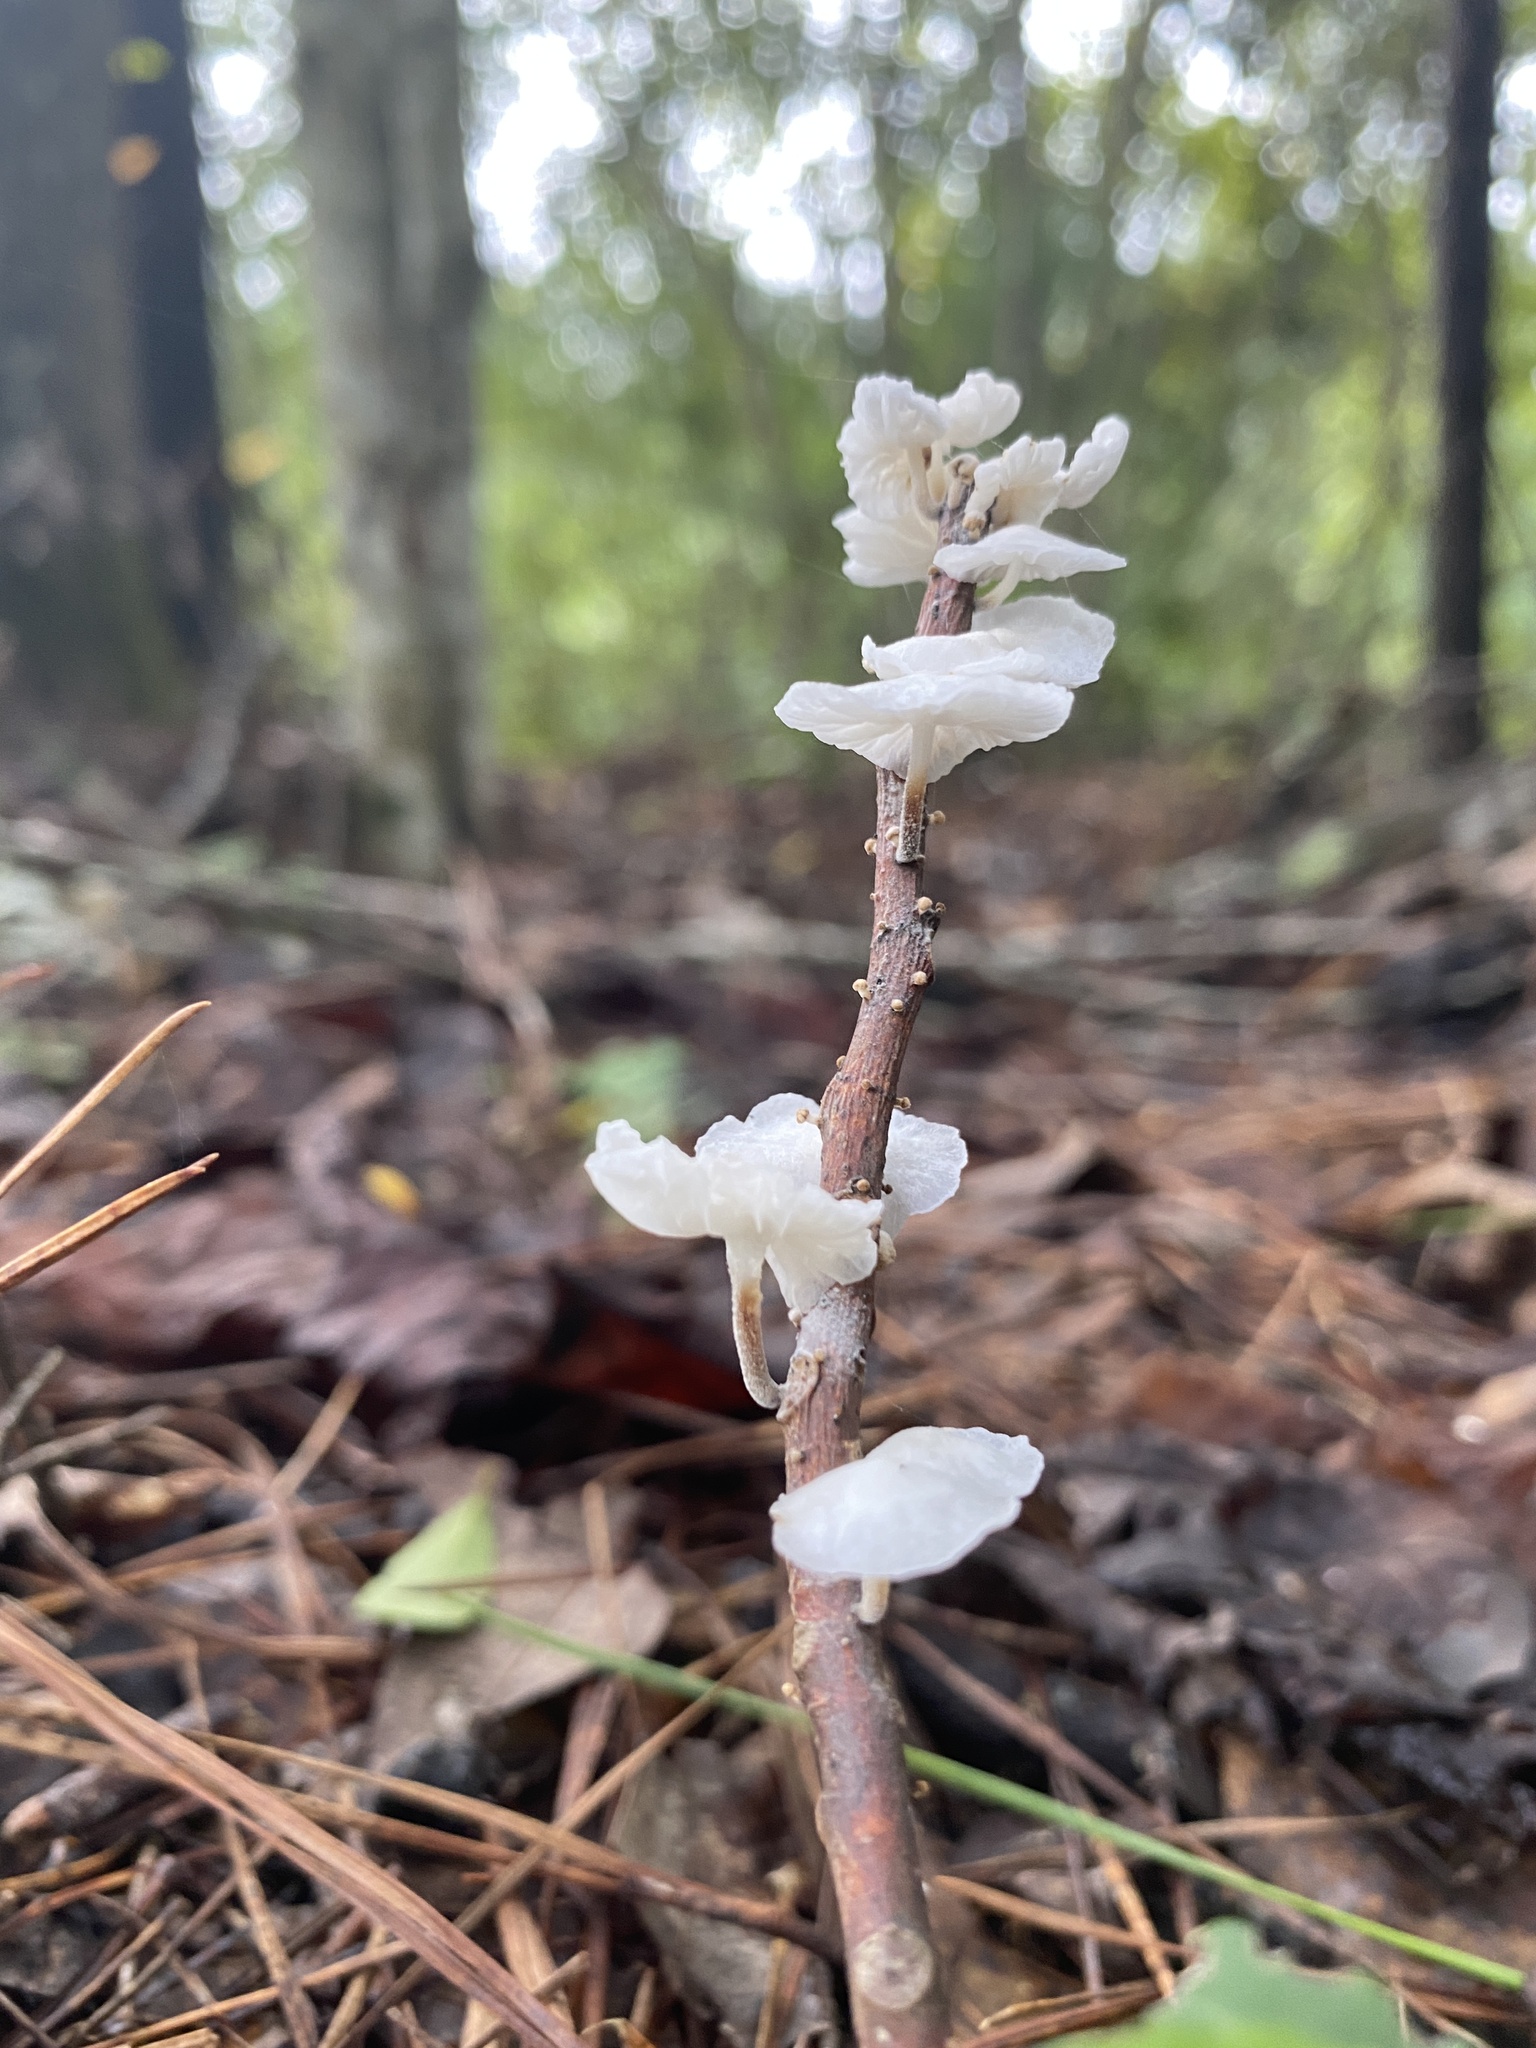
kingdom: Fungi
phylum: Basidiomycota
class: Agaricomycetes
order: Agaricales
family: Omphalotaceae
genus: Marasmiellus
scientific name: Marasmiellus candidus
